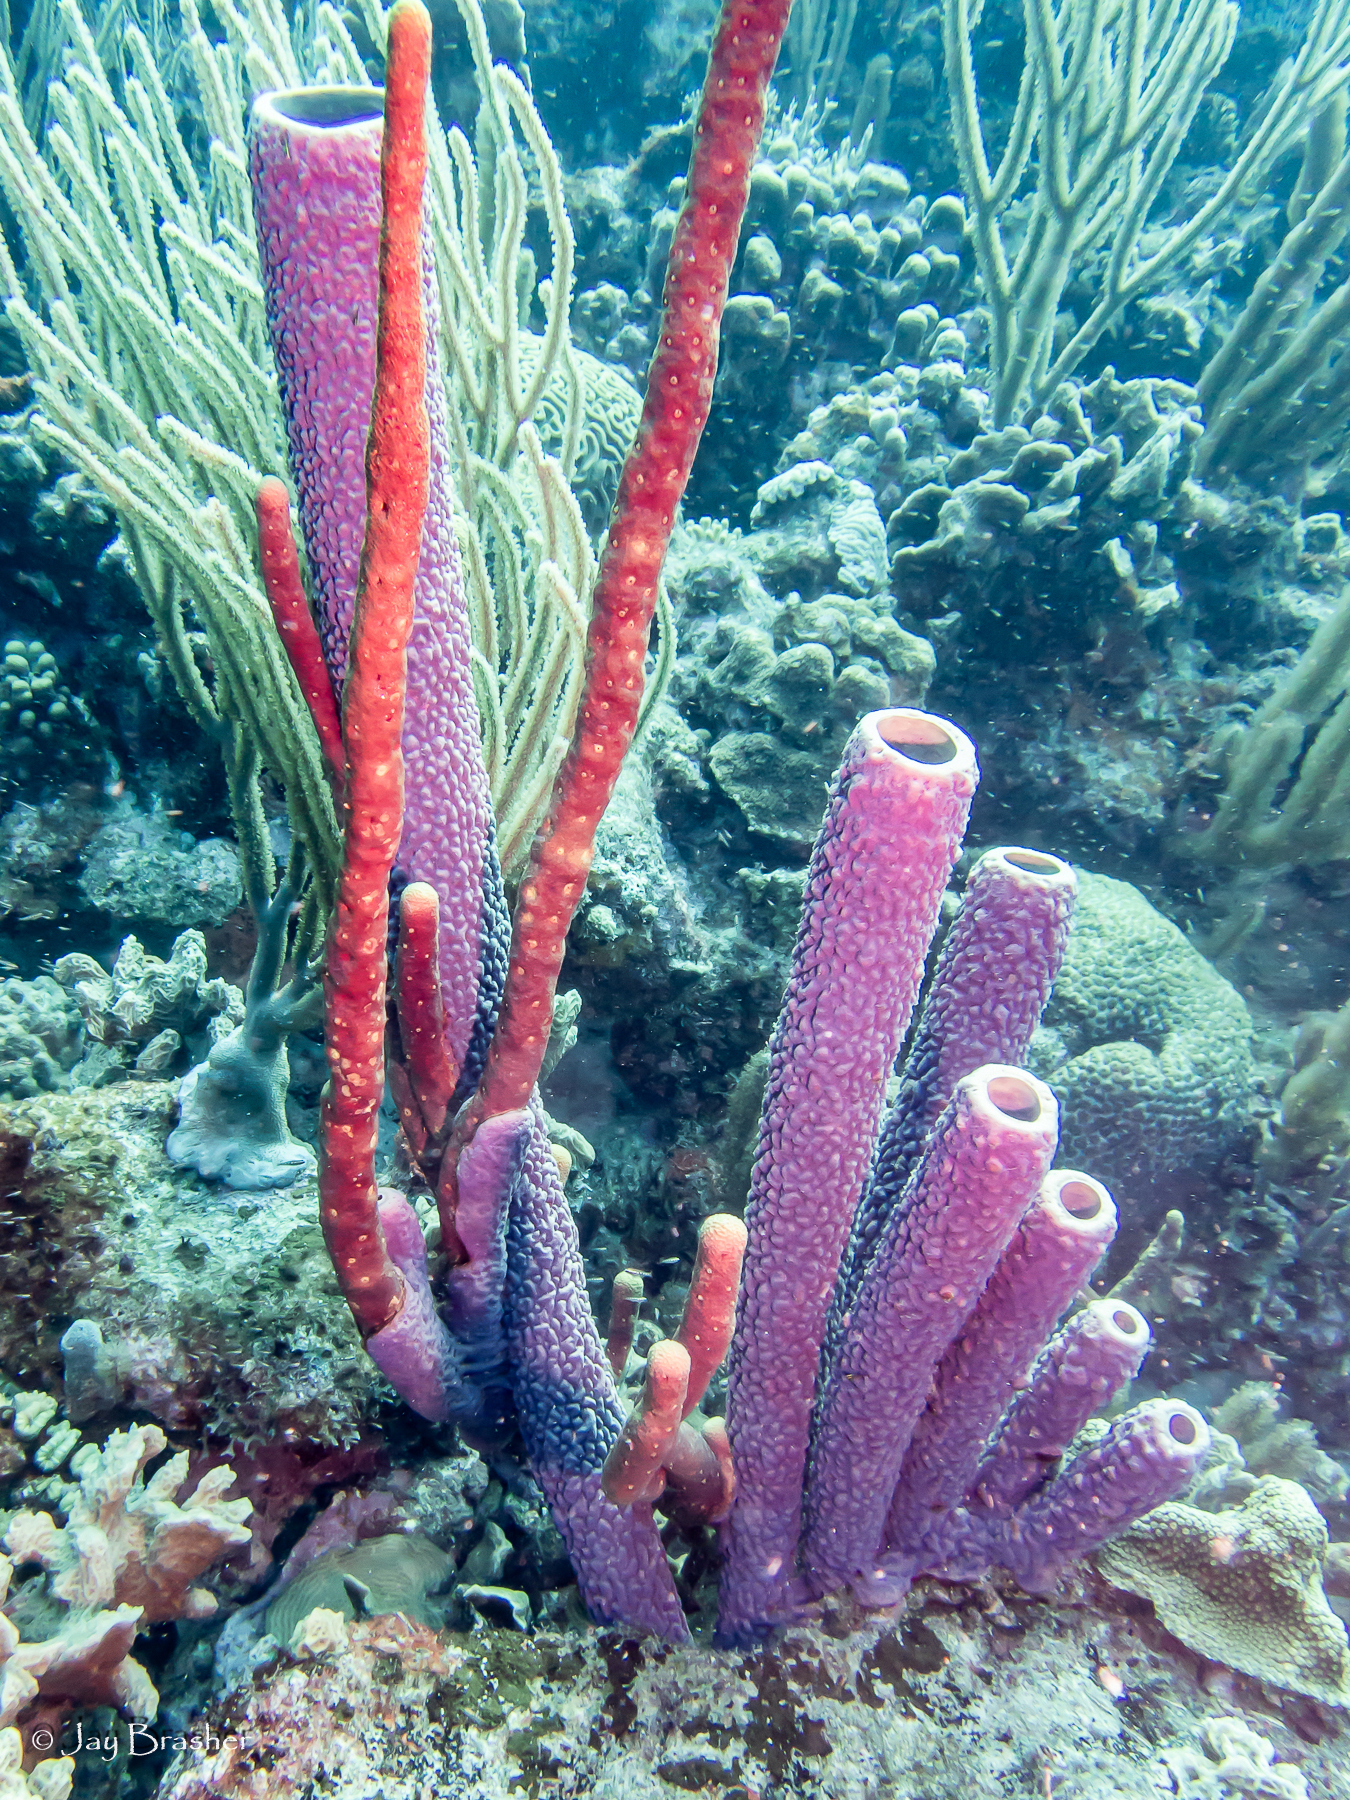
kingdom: Animalia
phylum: Porifera
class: Demospongiae
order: Verongiida
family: Aplysinidae
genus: Aplysina
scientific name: Aplysina archeri
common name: Stove-pipe sponge
